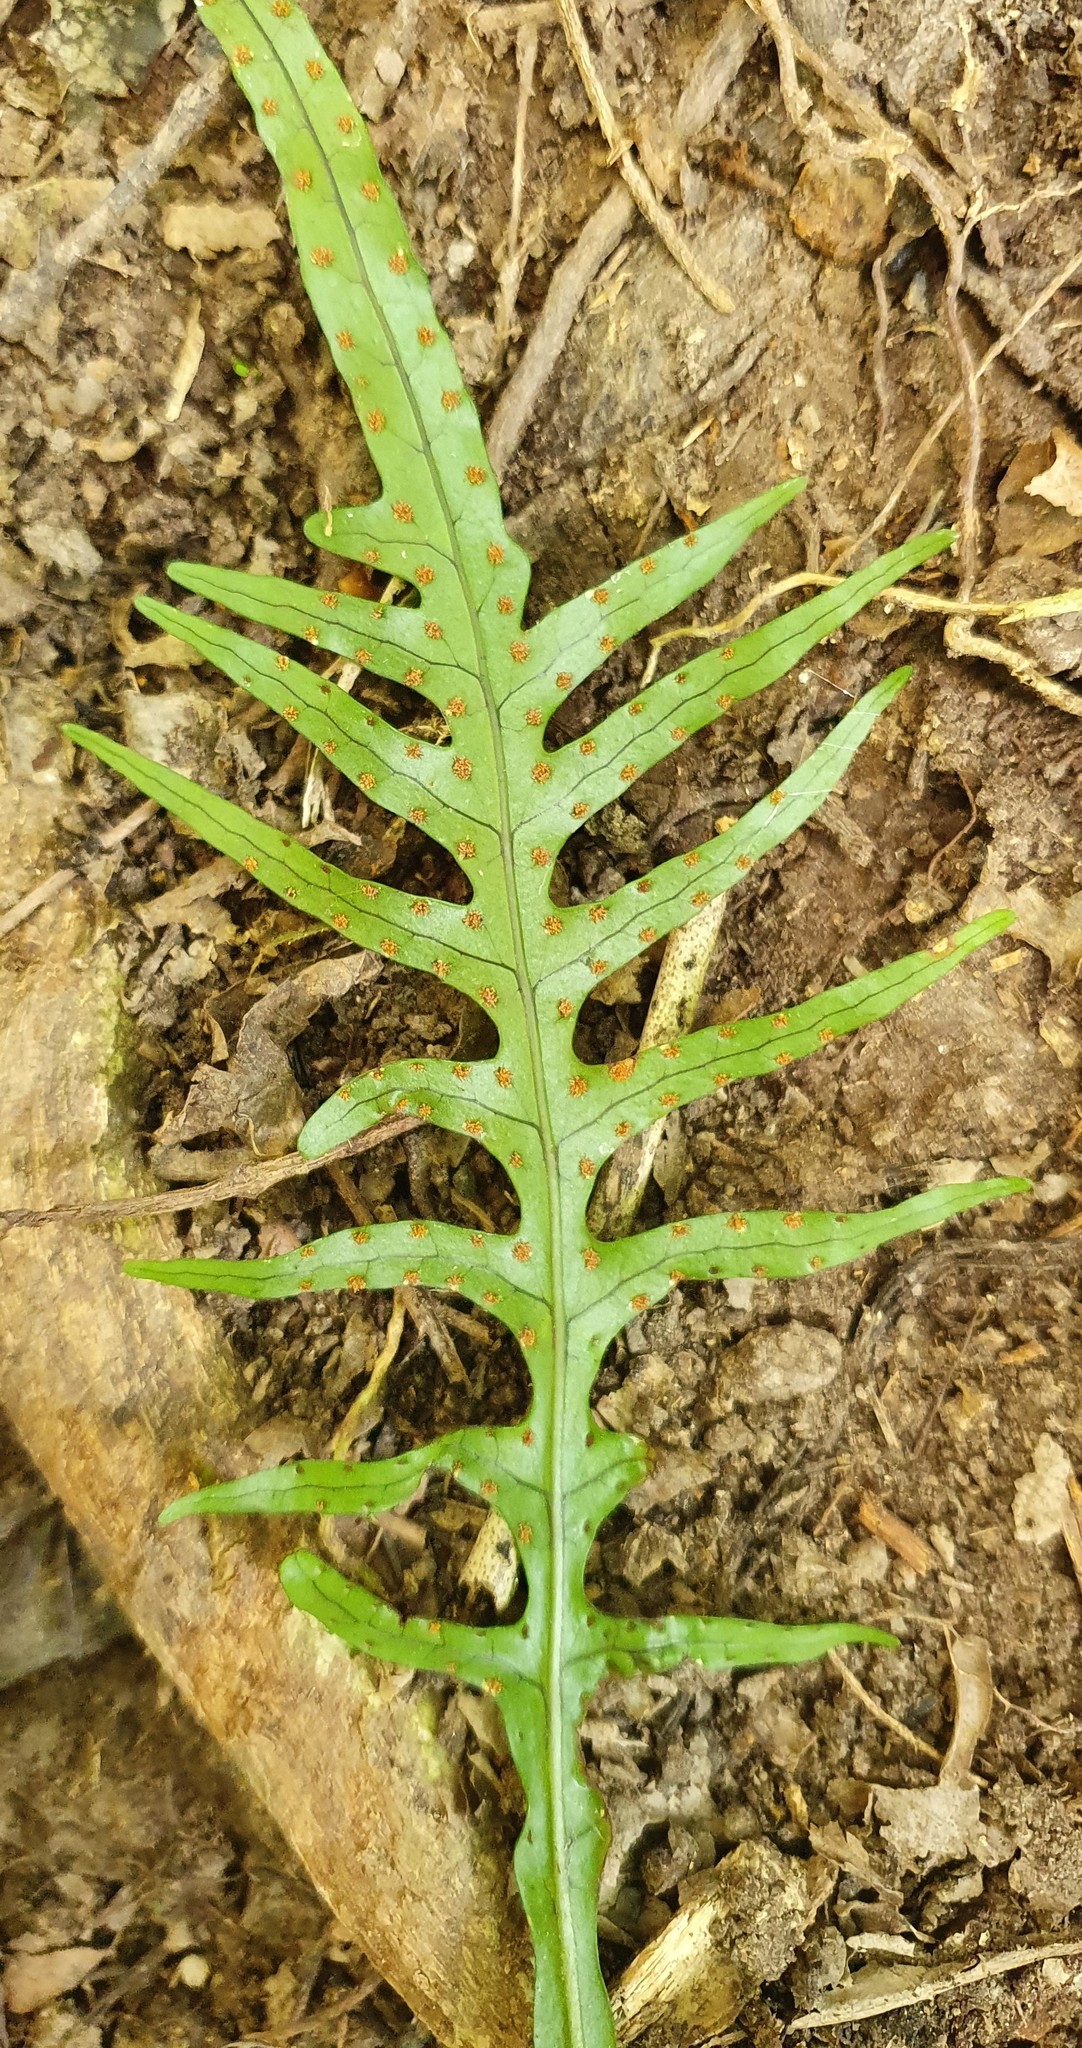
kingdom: Plantae
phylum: Tracheophyta
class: Polypodiopsida
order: Polypodiales
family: Polypodiaceae
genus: Lecanopteris
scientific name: Lecanopteris scandens
